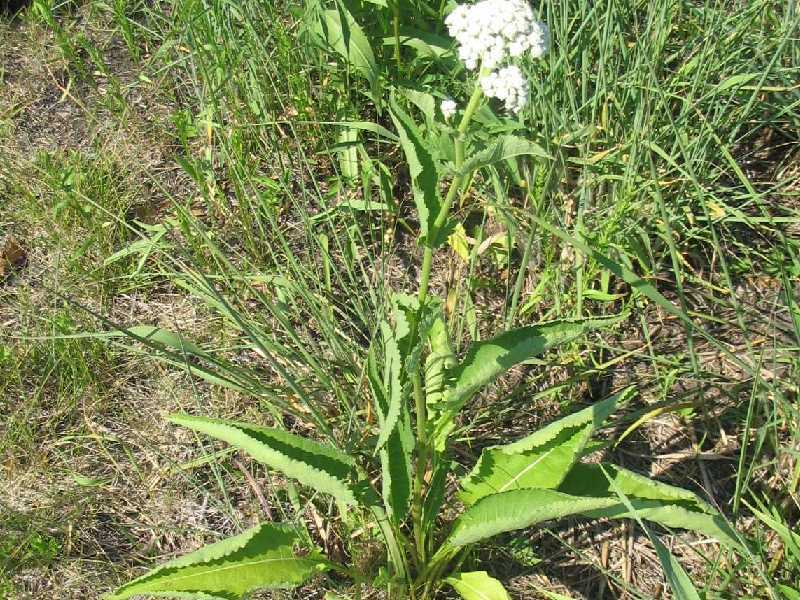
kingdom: Plantae
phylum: Tracheophyta
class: Magnoliopsida
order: Asterales
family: Asteraceae
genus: Parthenium
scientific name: Parthenium integrifolium
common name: American feverfew
